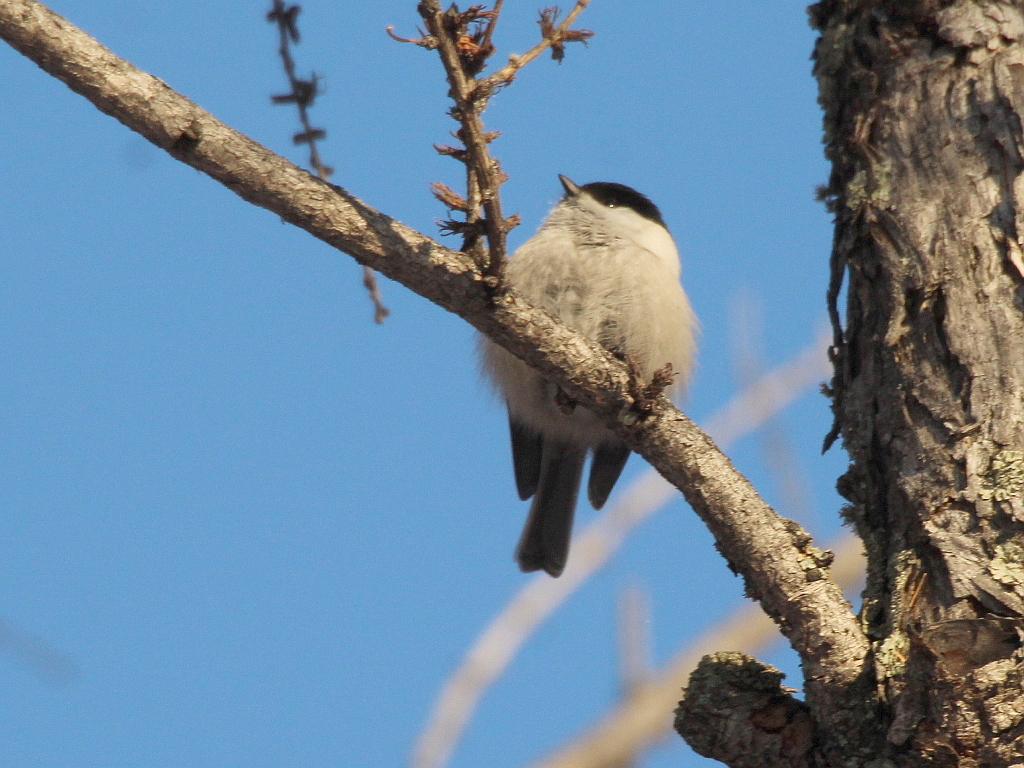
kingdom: Animalia
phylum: Chordata
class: Aves
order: Passeriformes
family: Paridae
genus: Poecile
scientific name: Poecile montanus
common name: Willow tit
